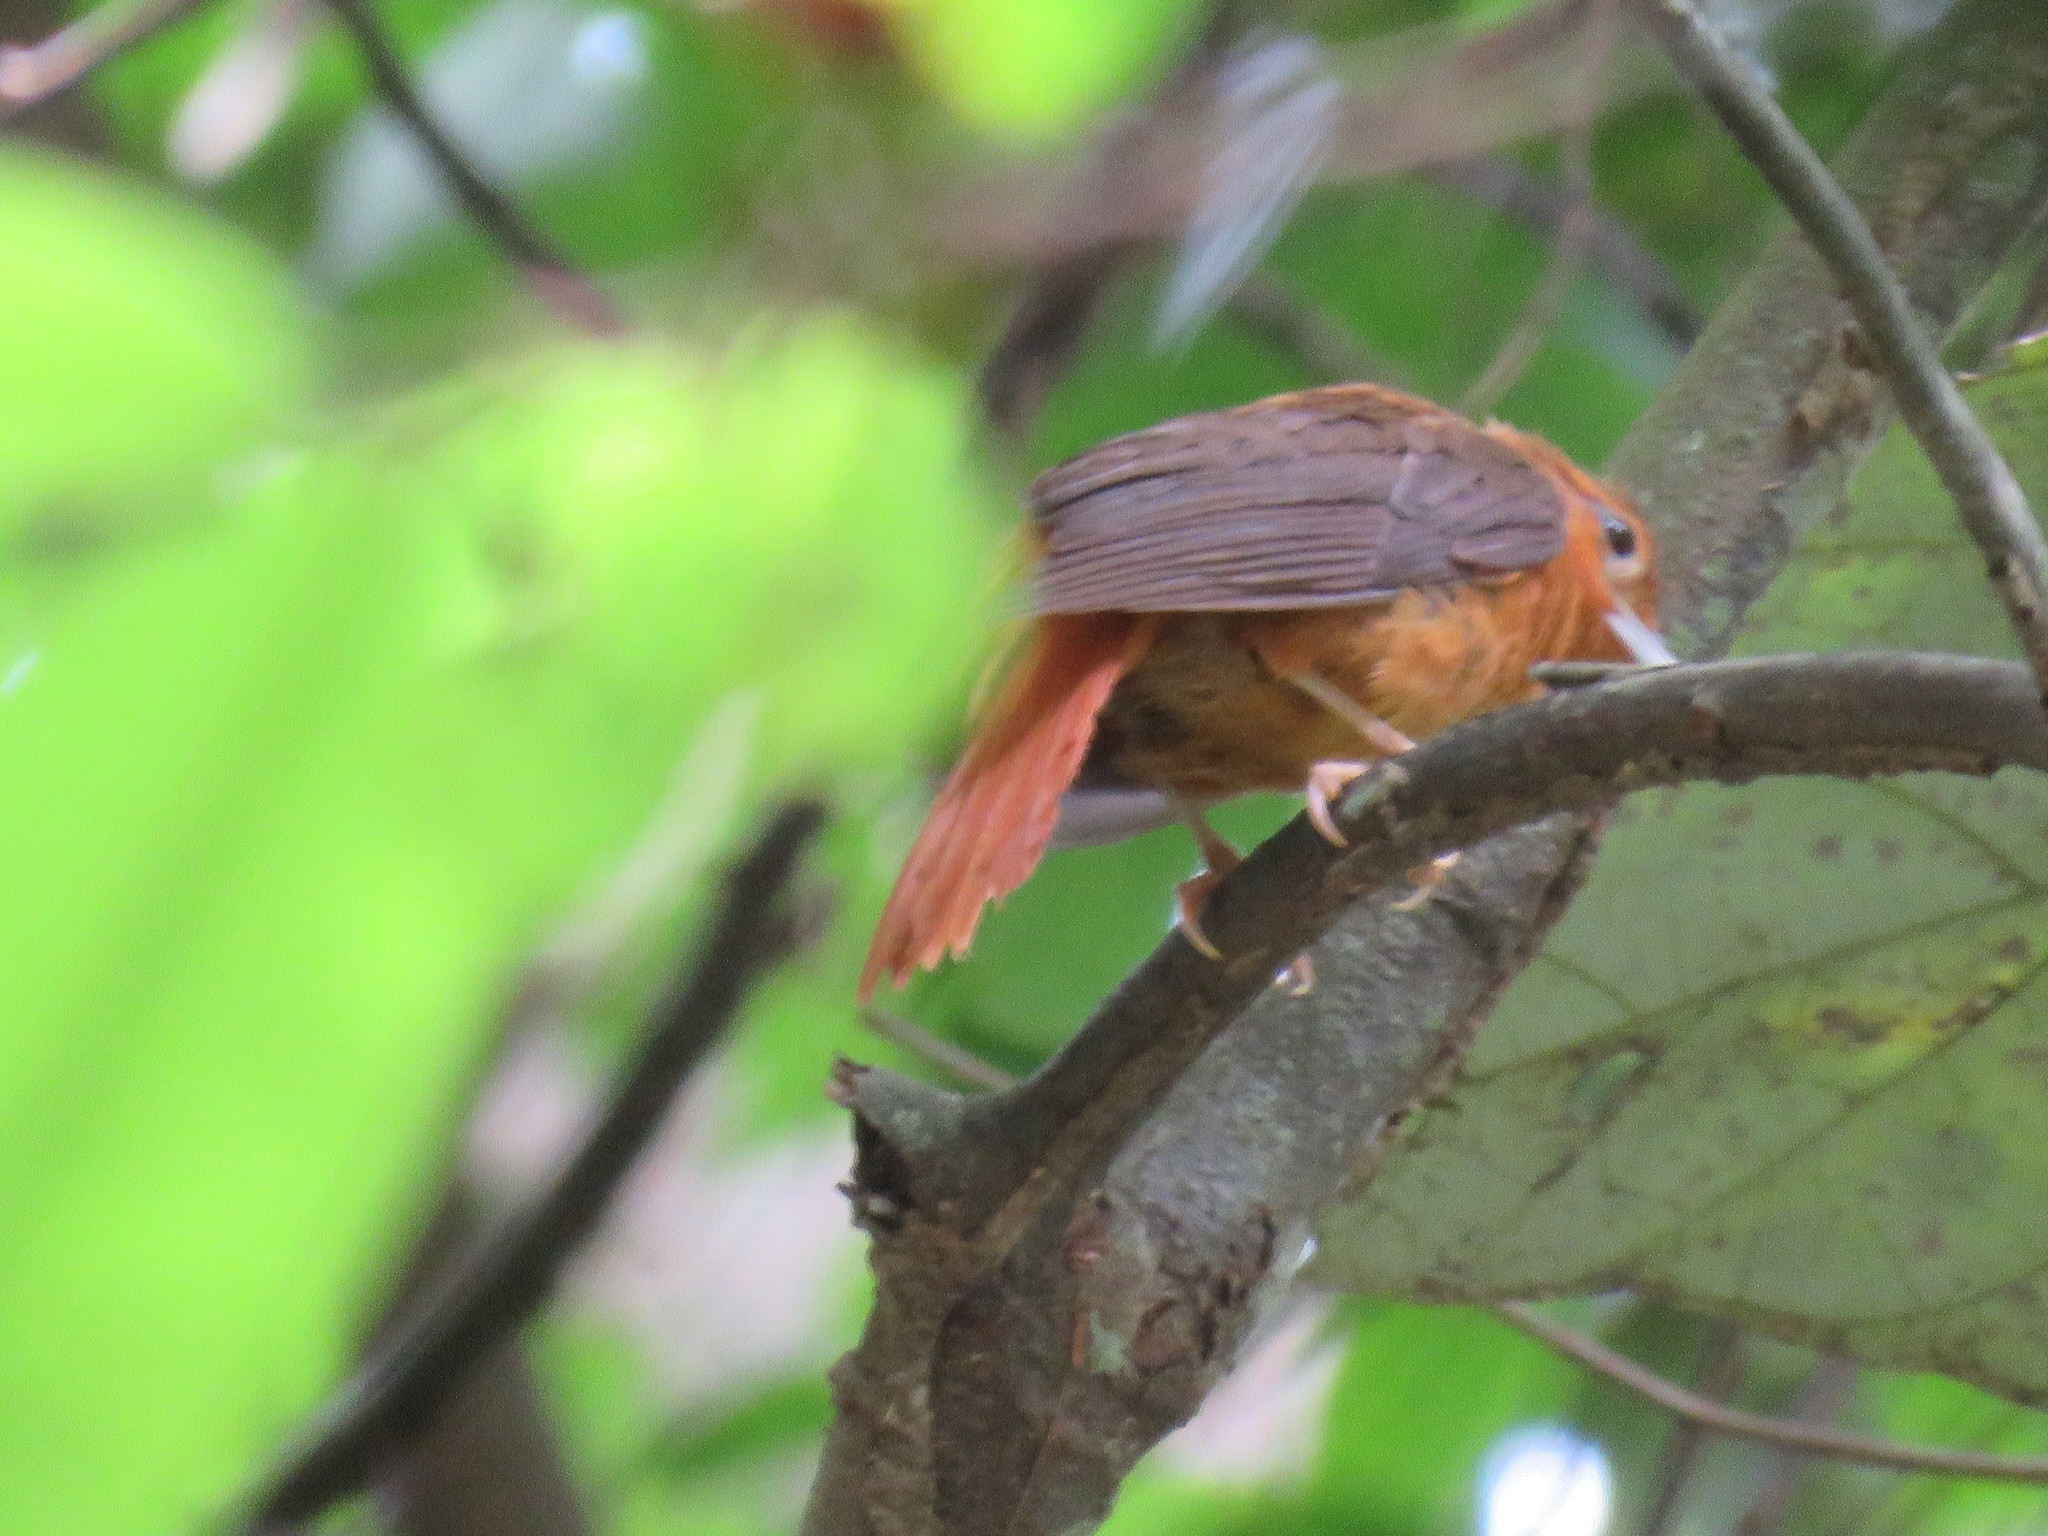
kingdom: Animalia
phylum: Chordata
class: Aves
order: Passeriformes
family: Furnariidae
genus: Philydor
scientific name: Philydor pyrrhodes
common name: Cinnamon-rumped foliage-gleaner
